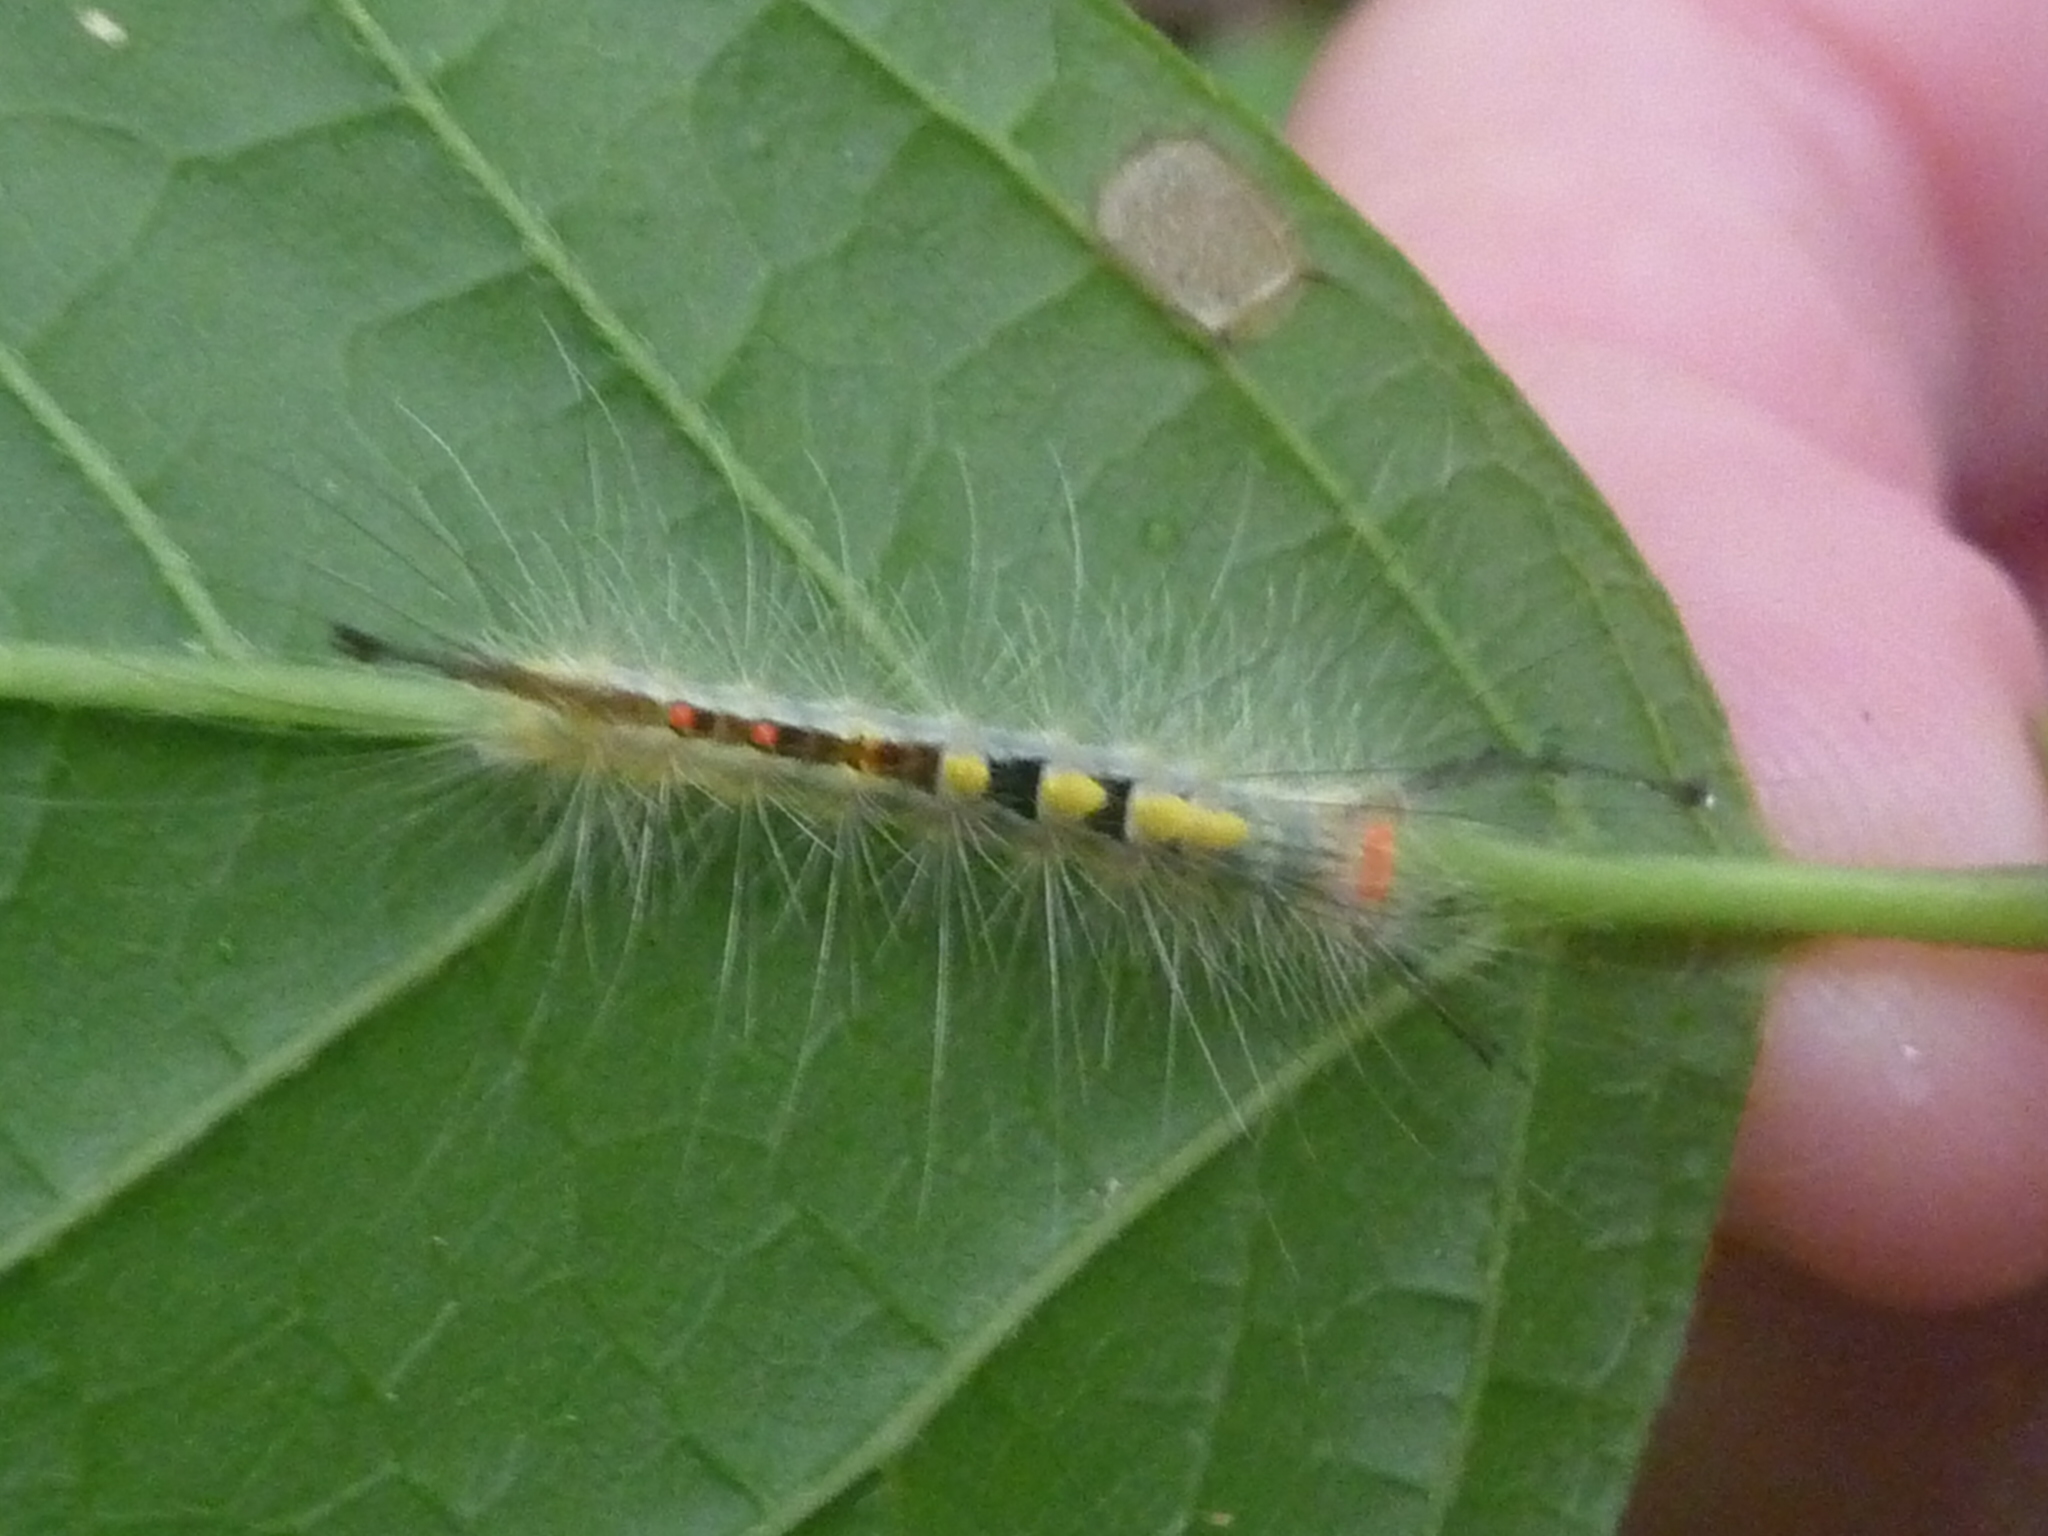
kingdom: Animalia
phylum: Arthropoda
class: Insecta
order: Lepidoptera
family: Erebidae
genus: Orgyia
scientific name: Orgyia leucostigma
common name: White-marked tussock moth
